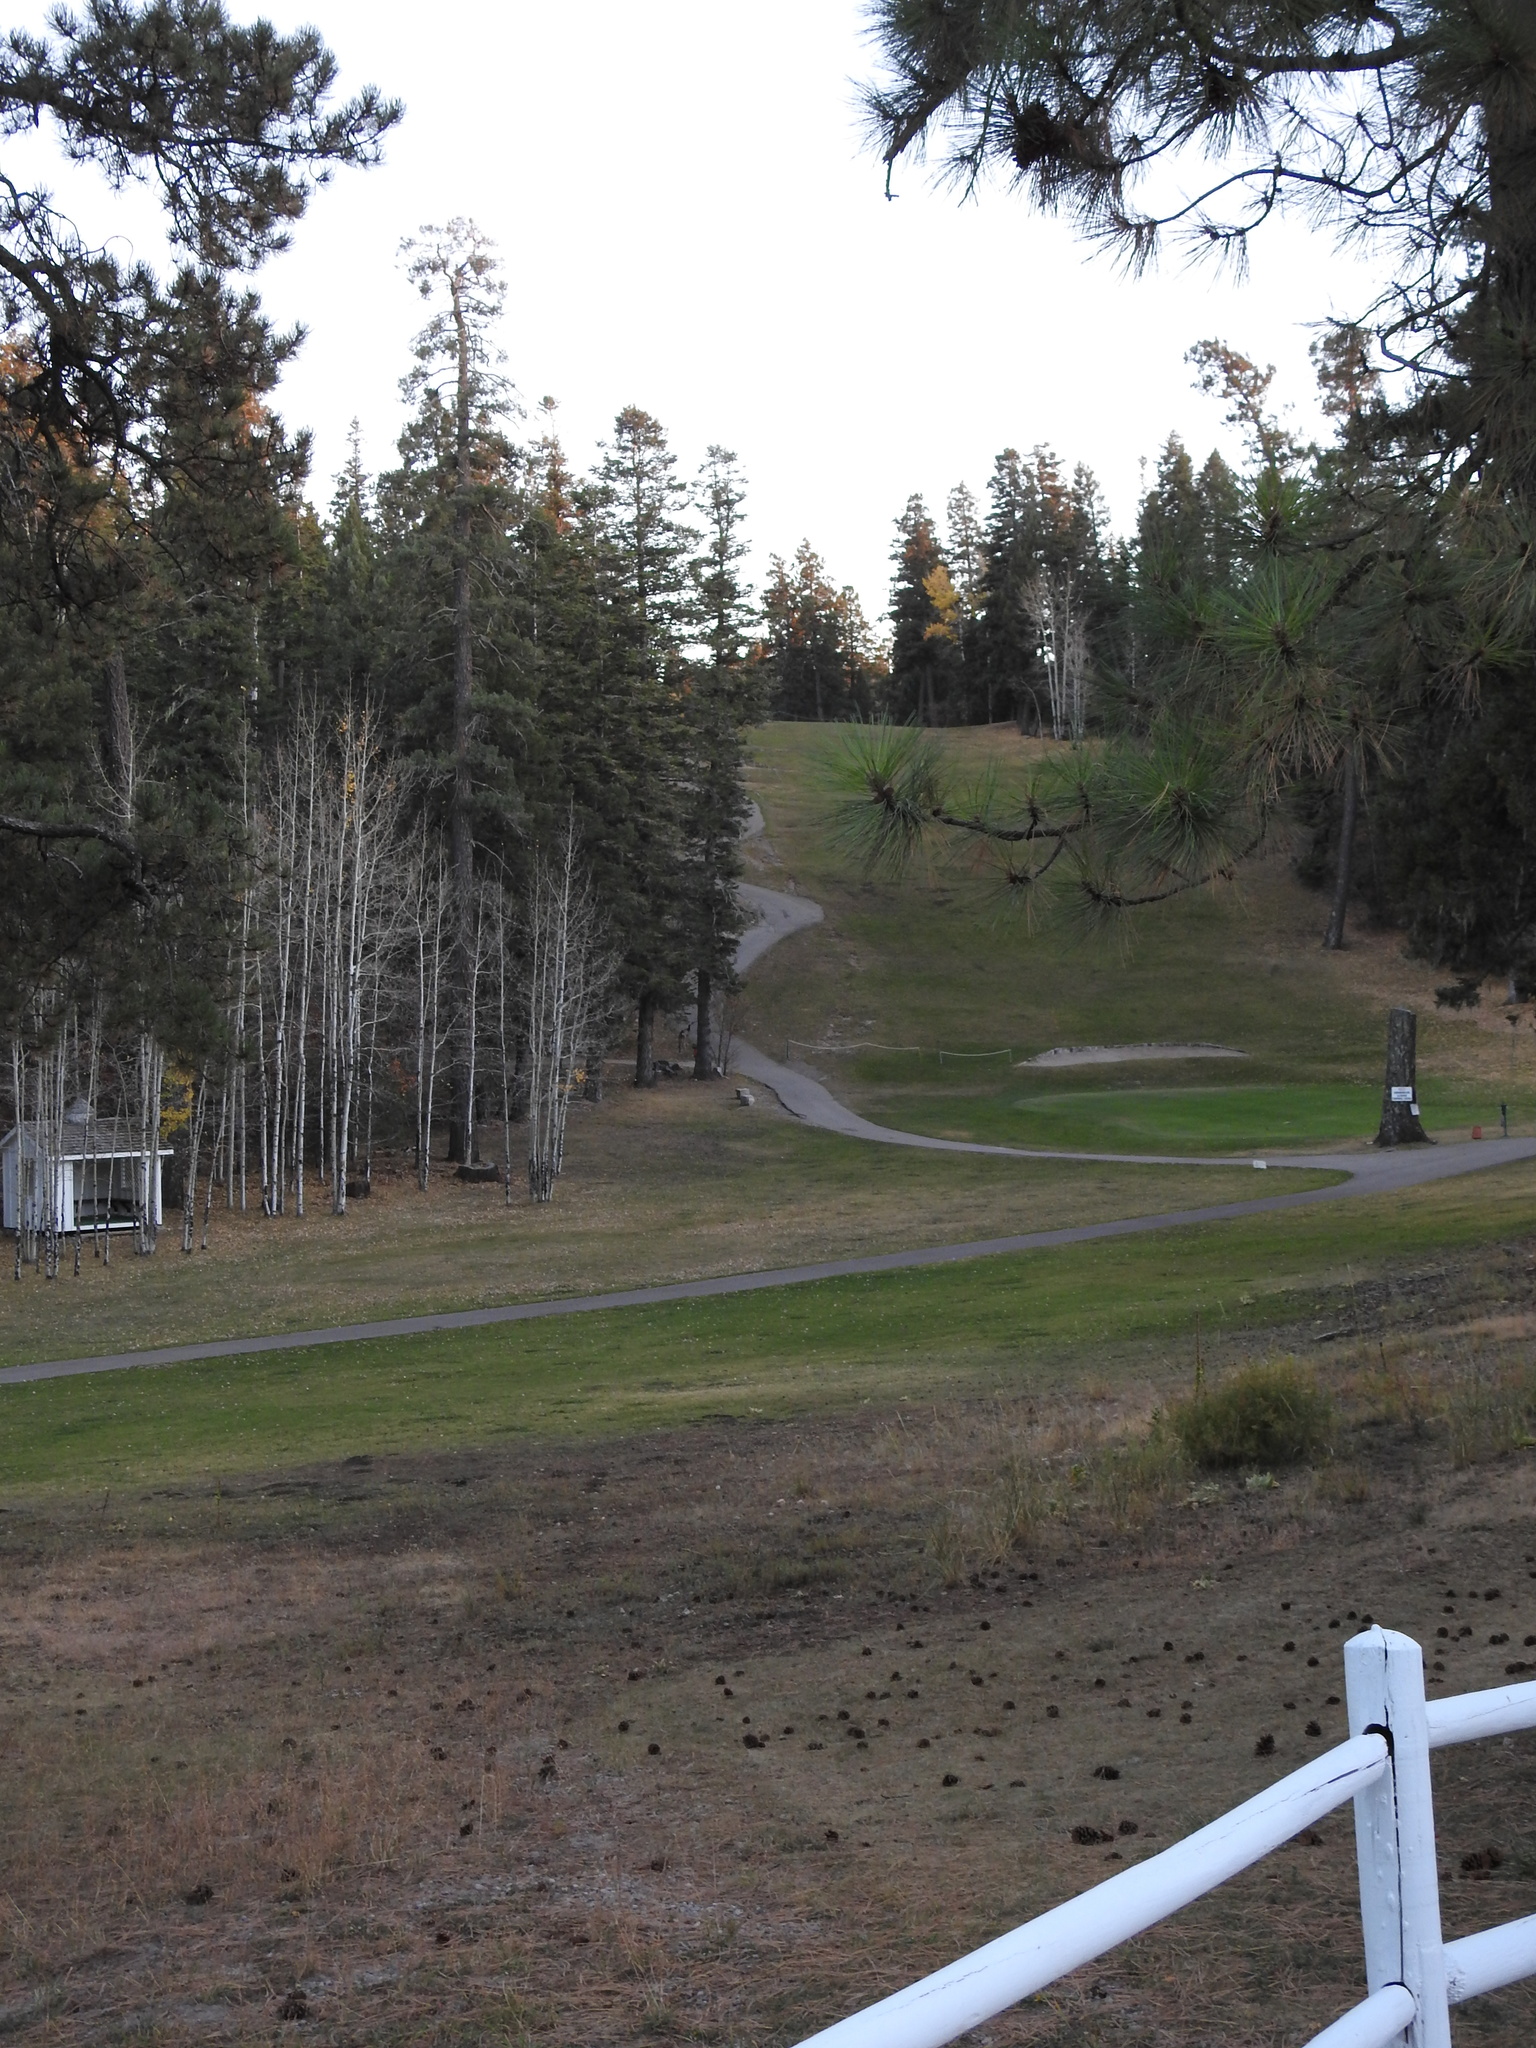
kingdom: Animalia
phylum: Chordata
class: Mammalia
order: Artiodactyla
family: Cervidae
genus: Odocoileus
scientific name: Odocoileus hemionus
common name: Mule deer
